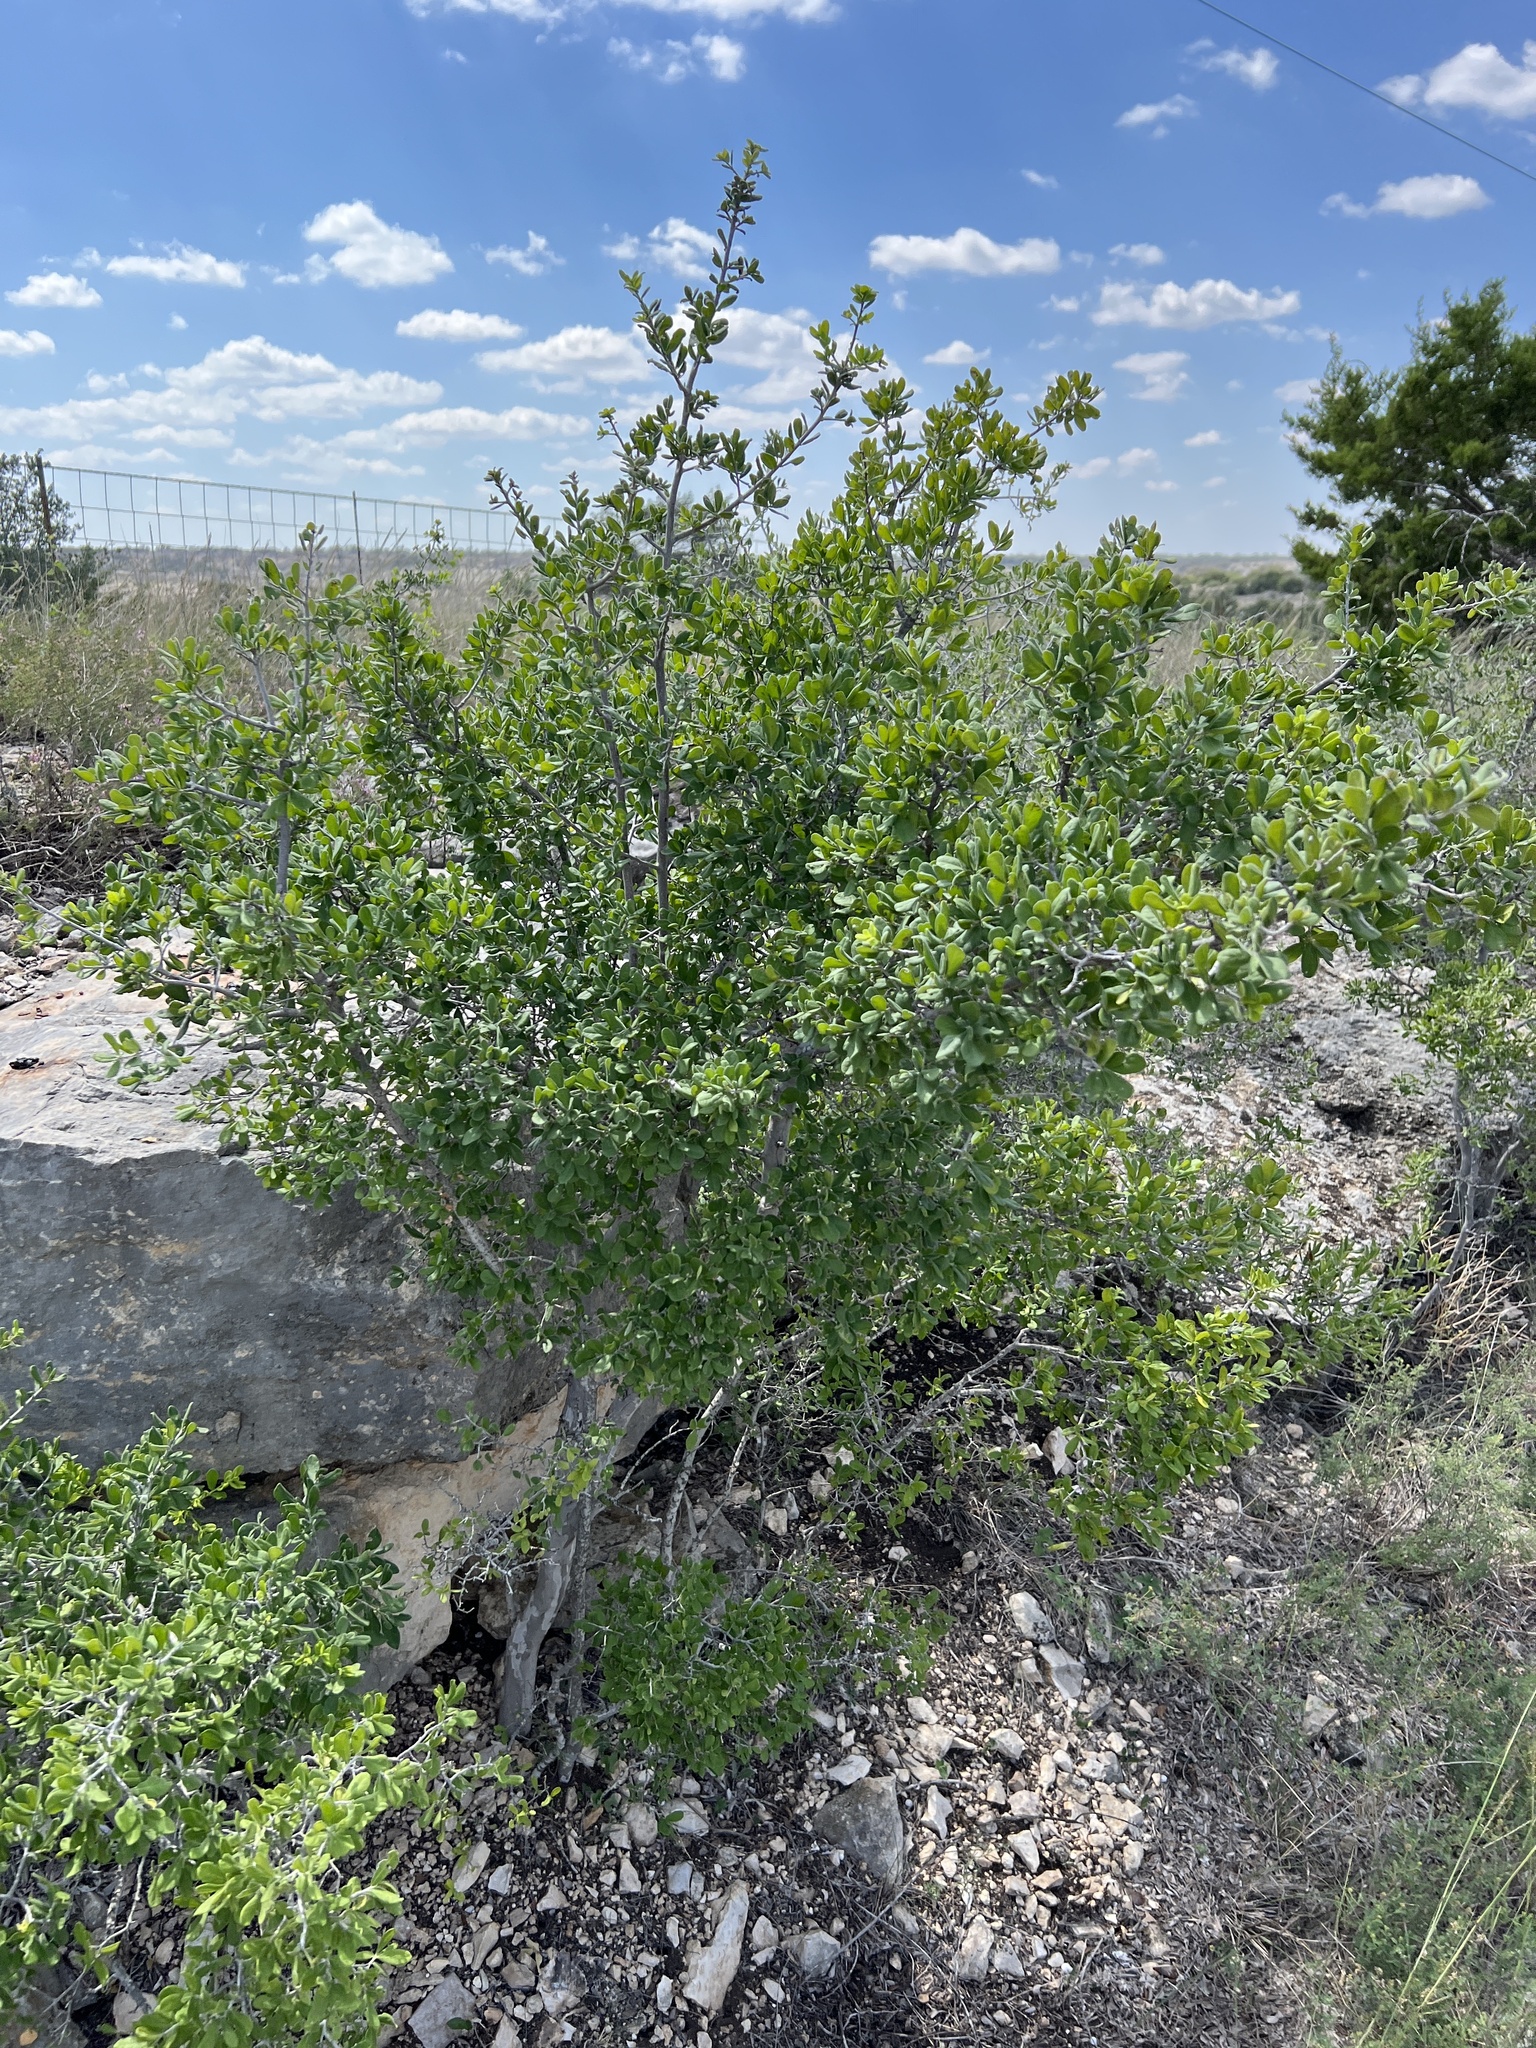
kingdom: Plantae
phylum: Tracheophyta
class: Magnoliopsida
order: Ericales
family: Ebenaceae
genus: Diospyros
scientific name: Diospyros texana
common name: Texas persimmon
